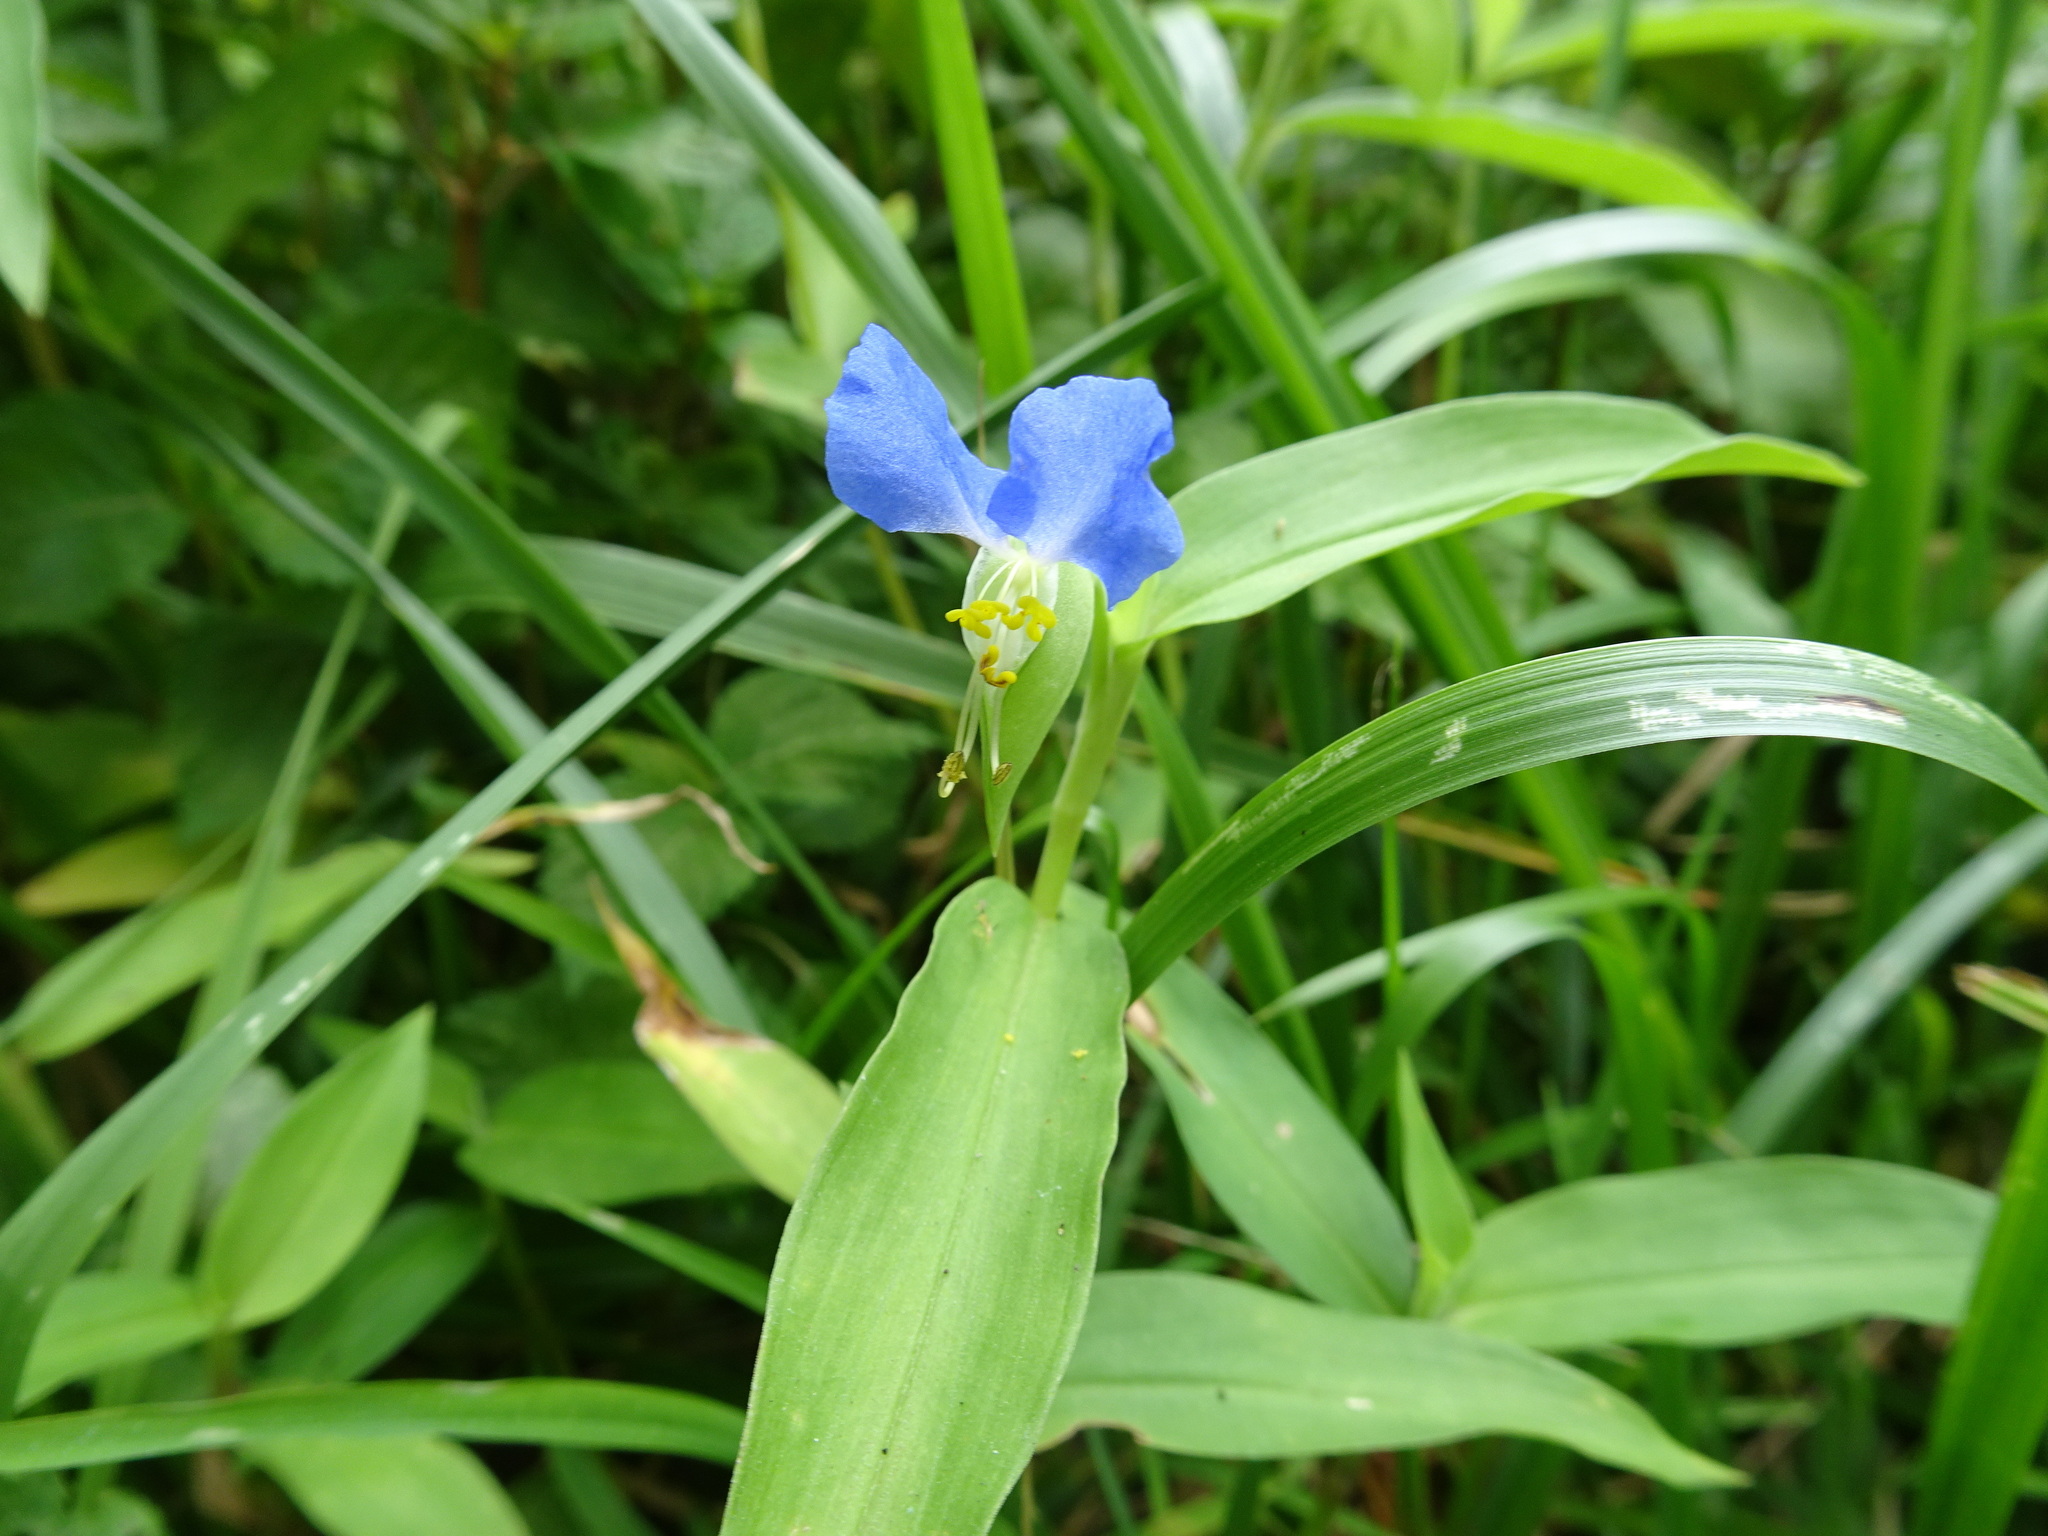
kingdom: Plantae
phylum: Tracheophyta
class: Liliopsida
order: Commelinales
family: Commelinaceae
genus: Commelina
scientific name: Commelina communis
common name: Asiatic dayflower
